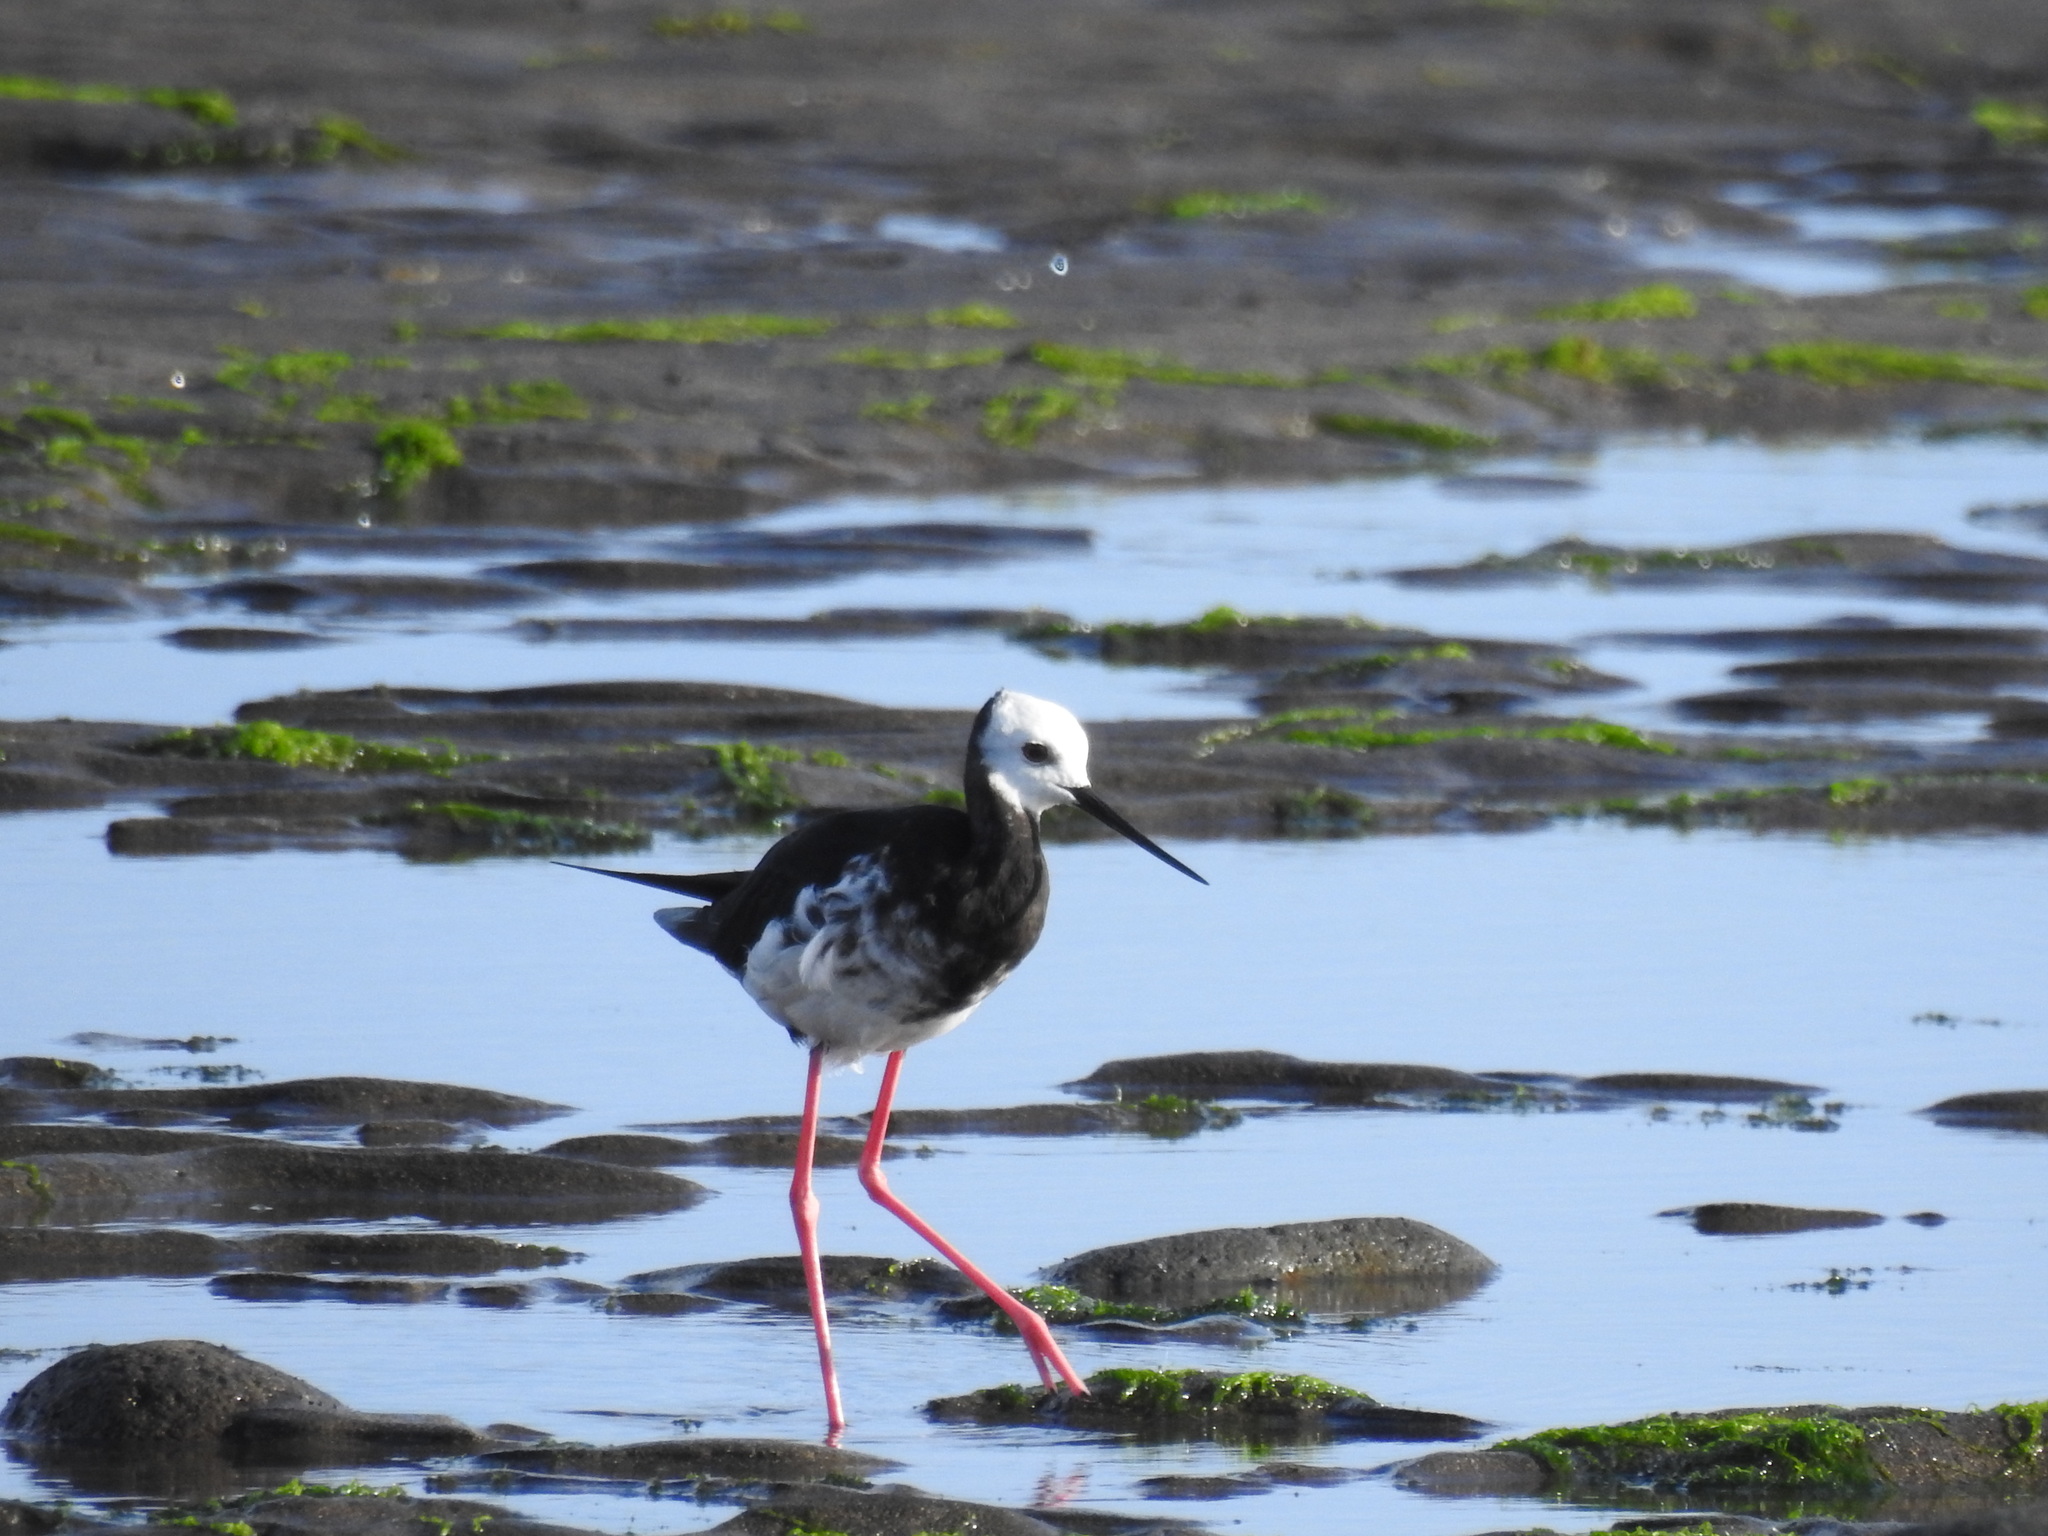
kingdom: Animalia
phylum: Chordata
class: Aves
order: Charadriiformes
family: Recurvirostridae
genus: Himantopus
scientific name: Himantopus
